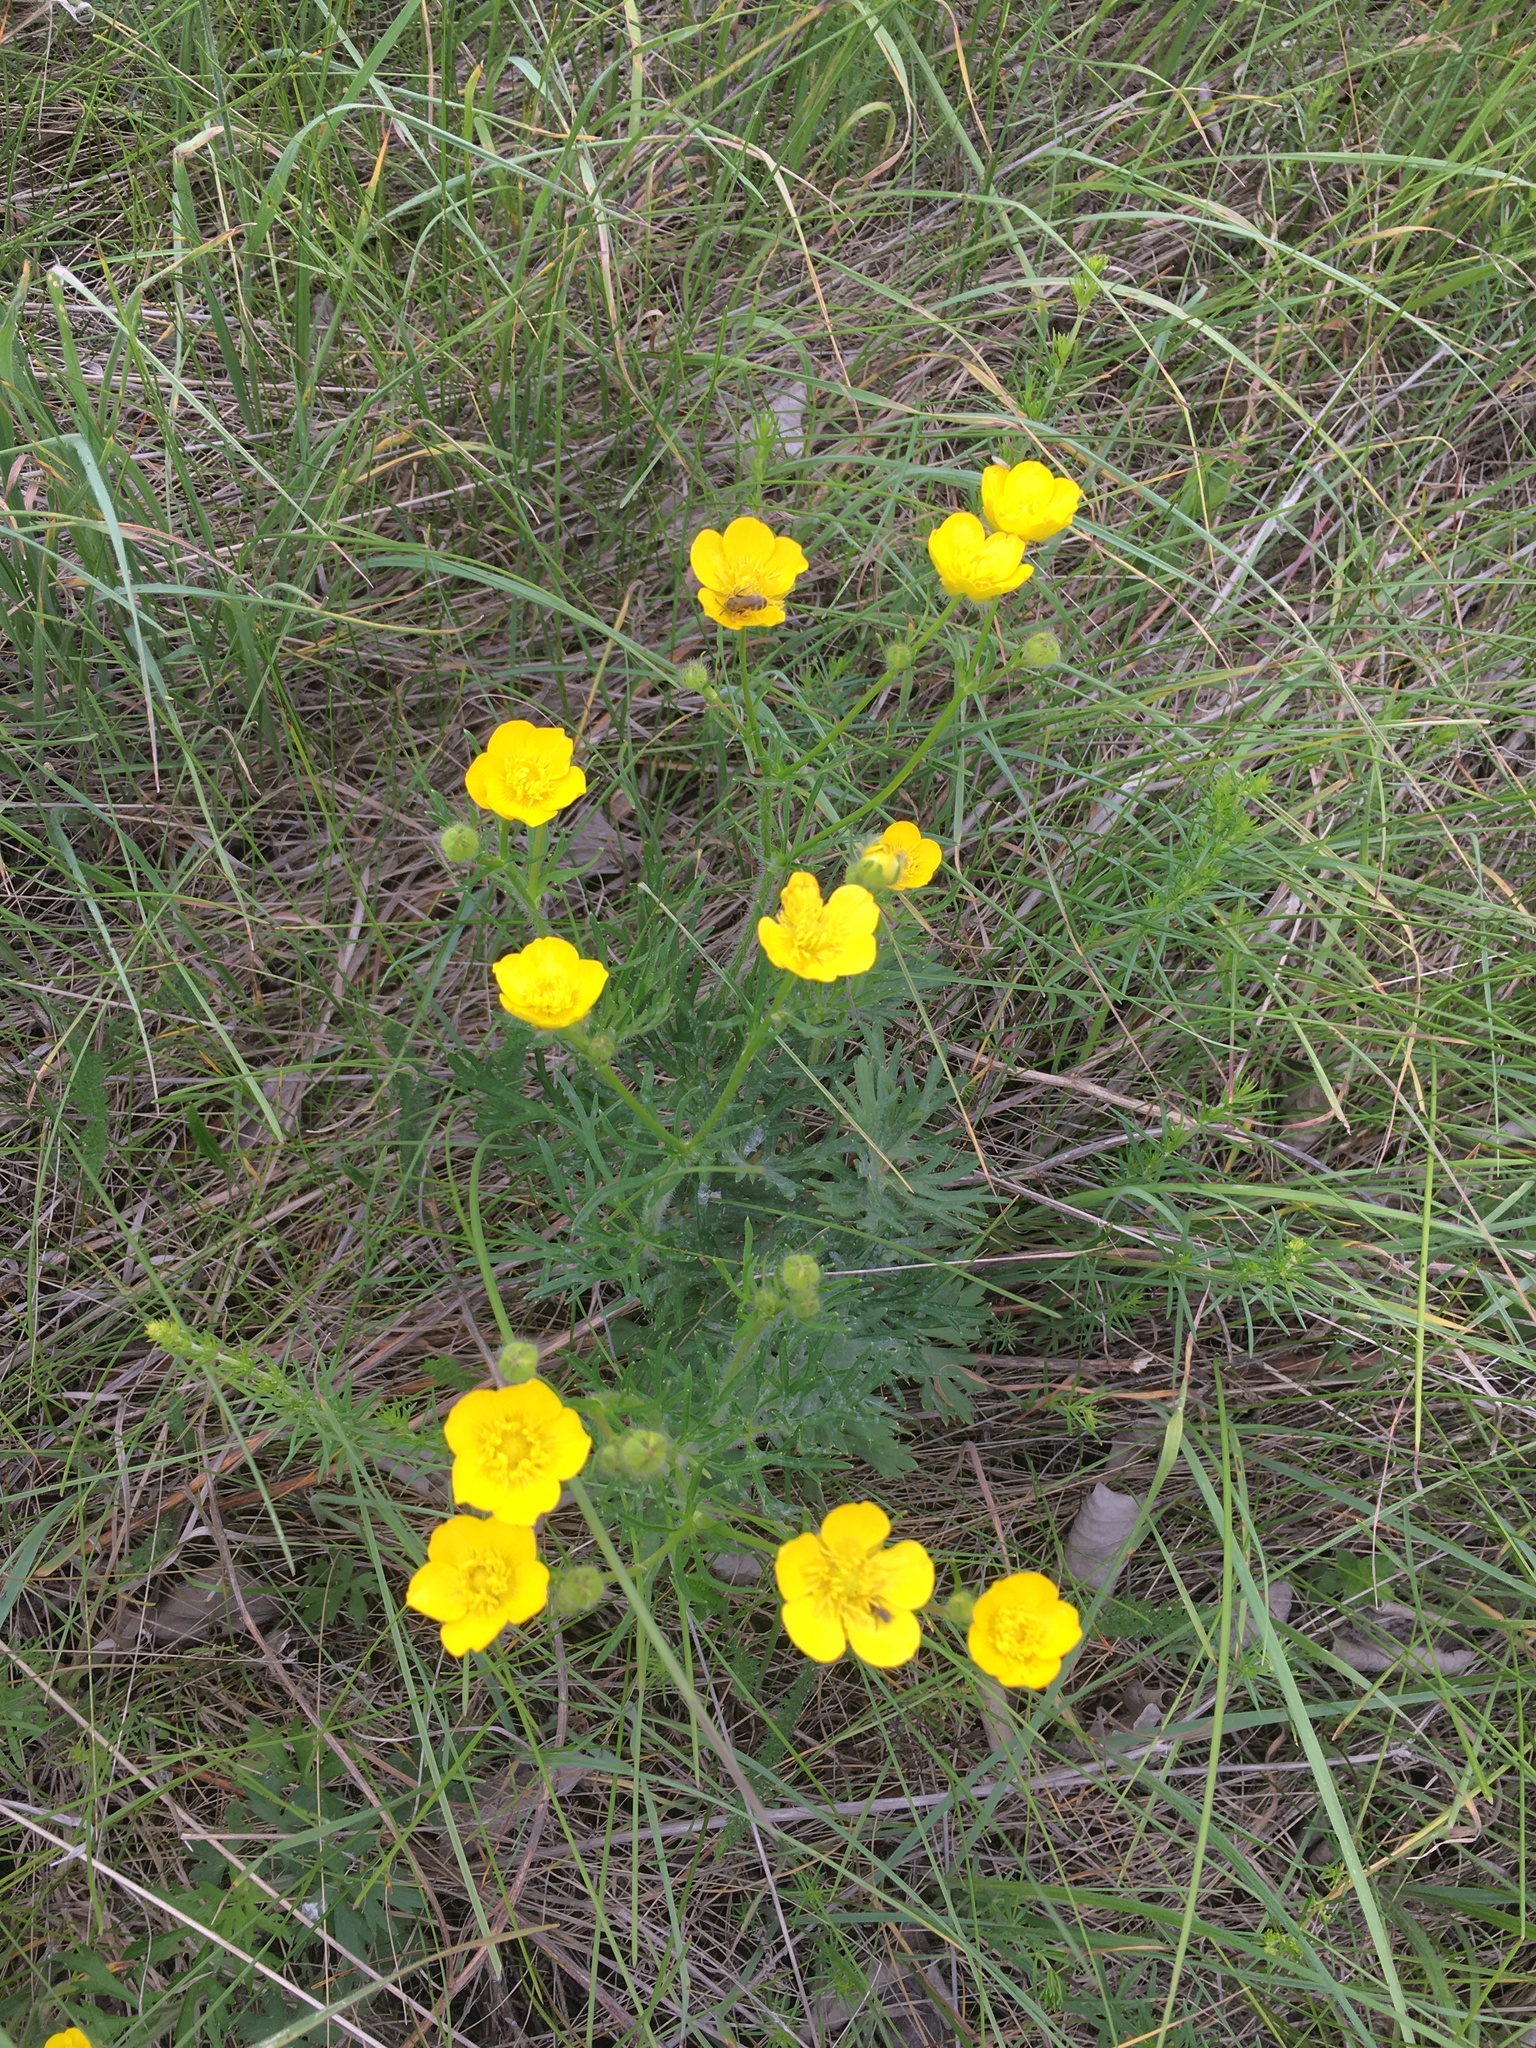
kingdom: Plantae
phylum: Tracheophyta
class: Magnoliopsida
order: Ranunculales
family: Ranunculaceae
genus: Ranunculus
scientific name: Ranunculus polyanthemos
